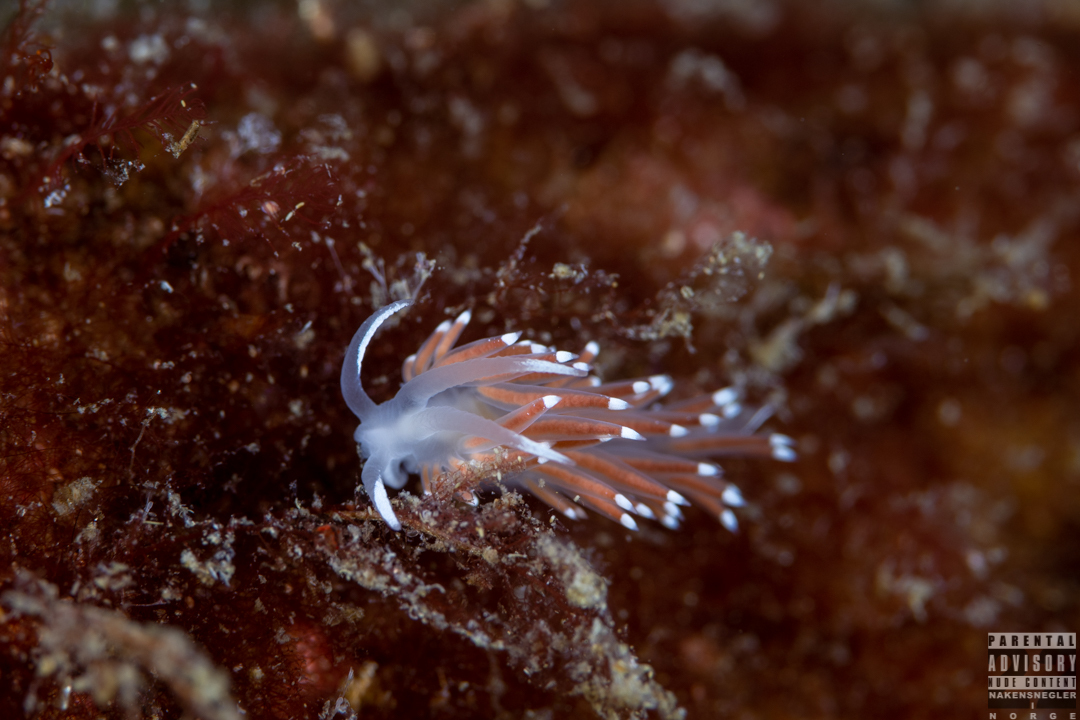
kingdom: Animalia
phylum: Mollusca
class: Gastropoda
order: Nudibranchia
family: Coryphellidae
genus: Coryphella
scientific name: Coryphella browni
